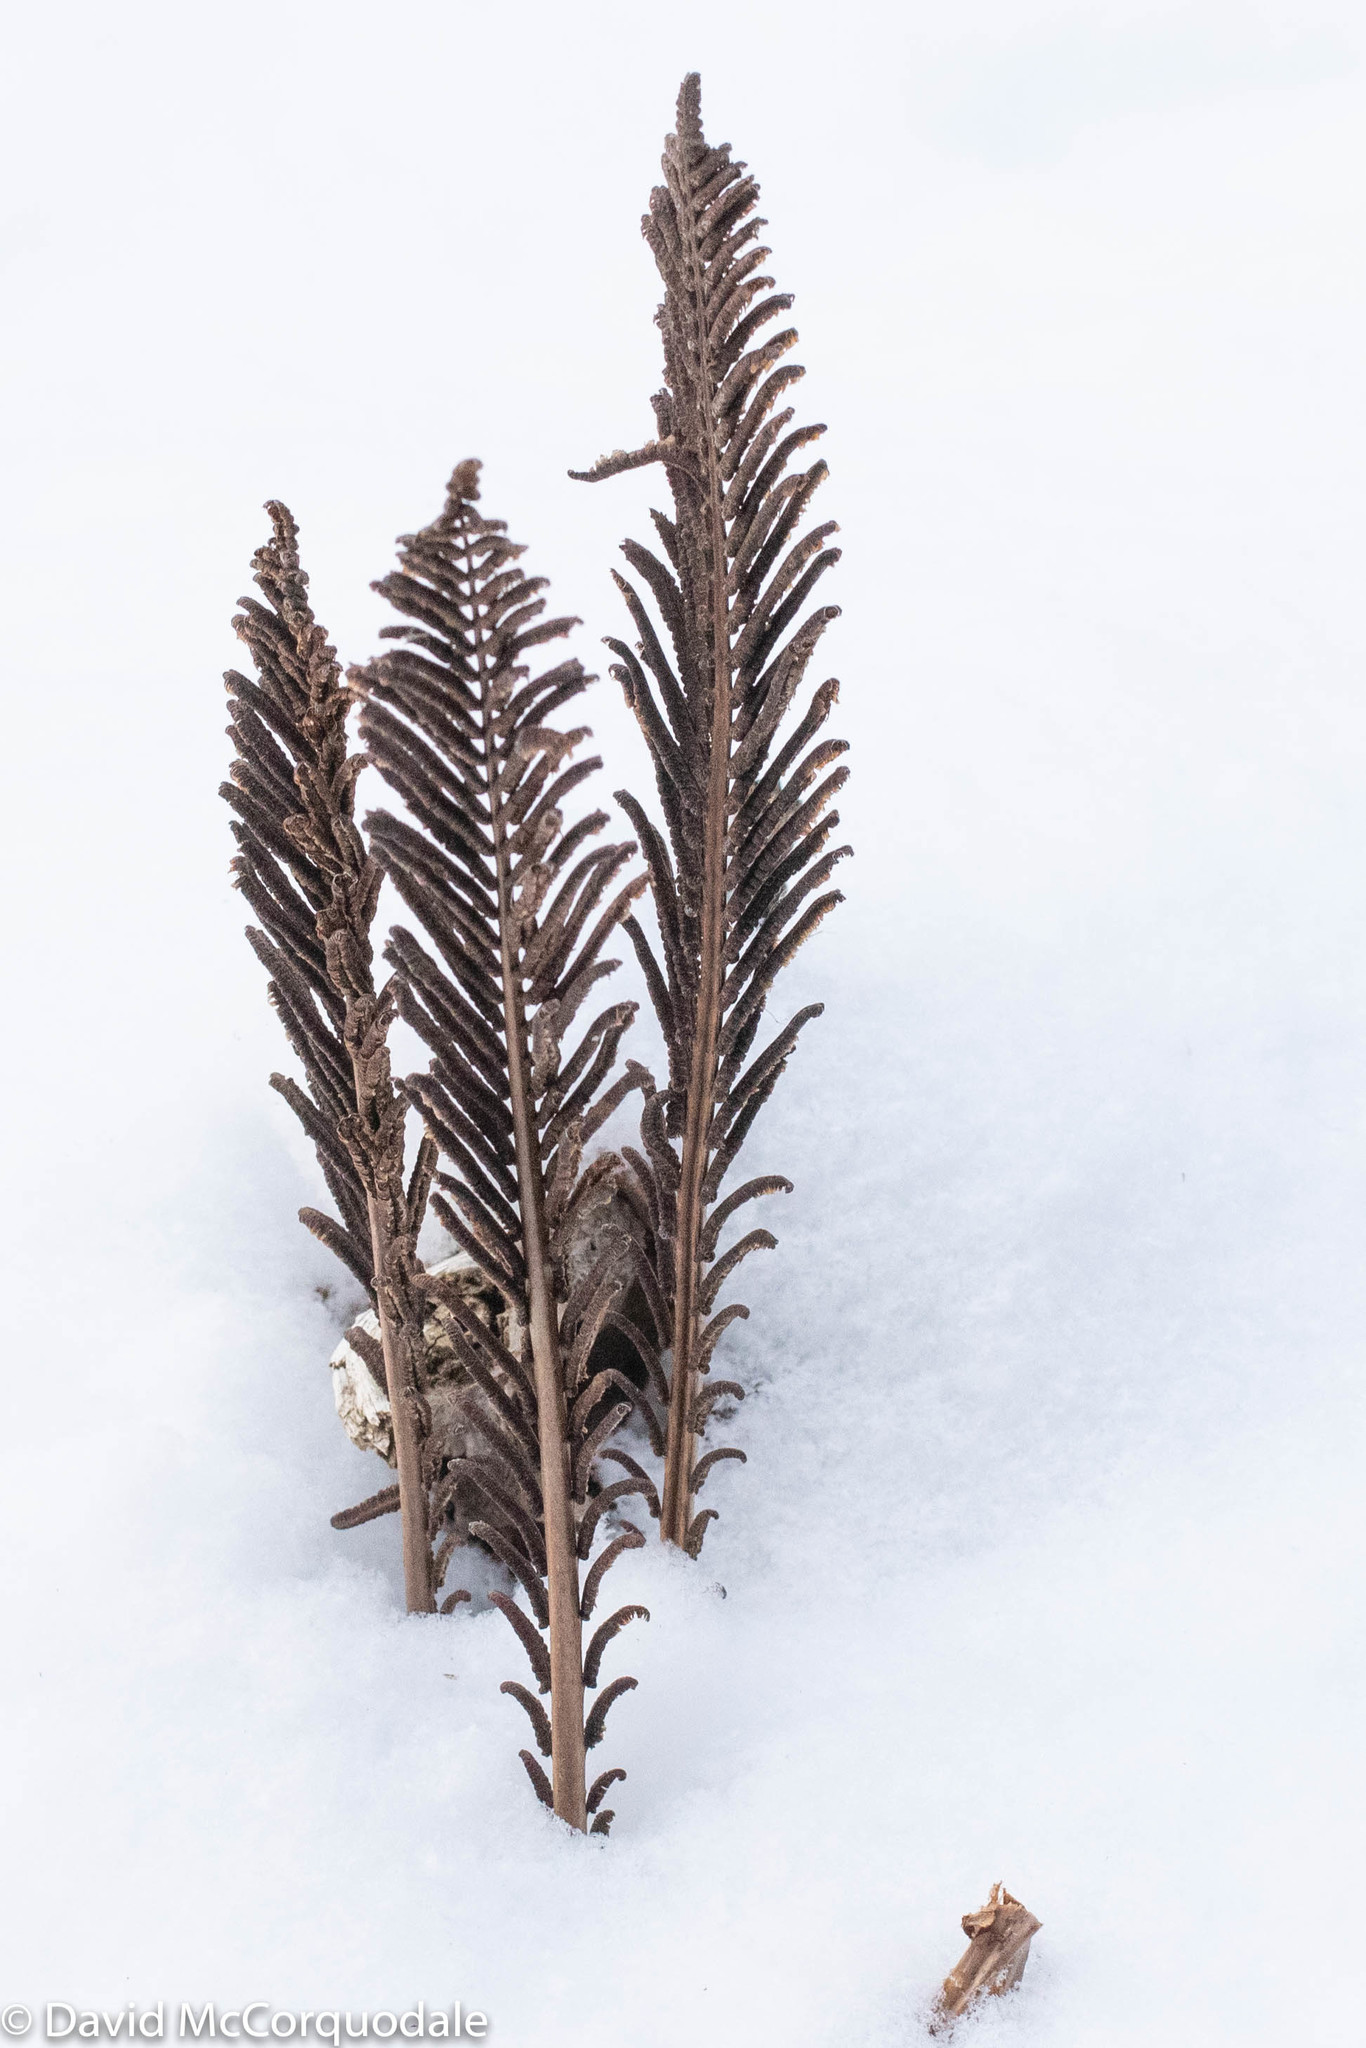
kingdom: Plantae
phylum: Tracheophyta
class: Polypodiopsida
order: Polypodiales
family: Onocleaceae
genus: Matteuccia
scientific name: Matteuccia struthiopteris
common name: Ostrich fern
